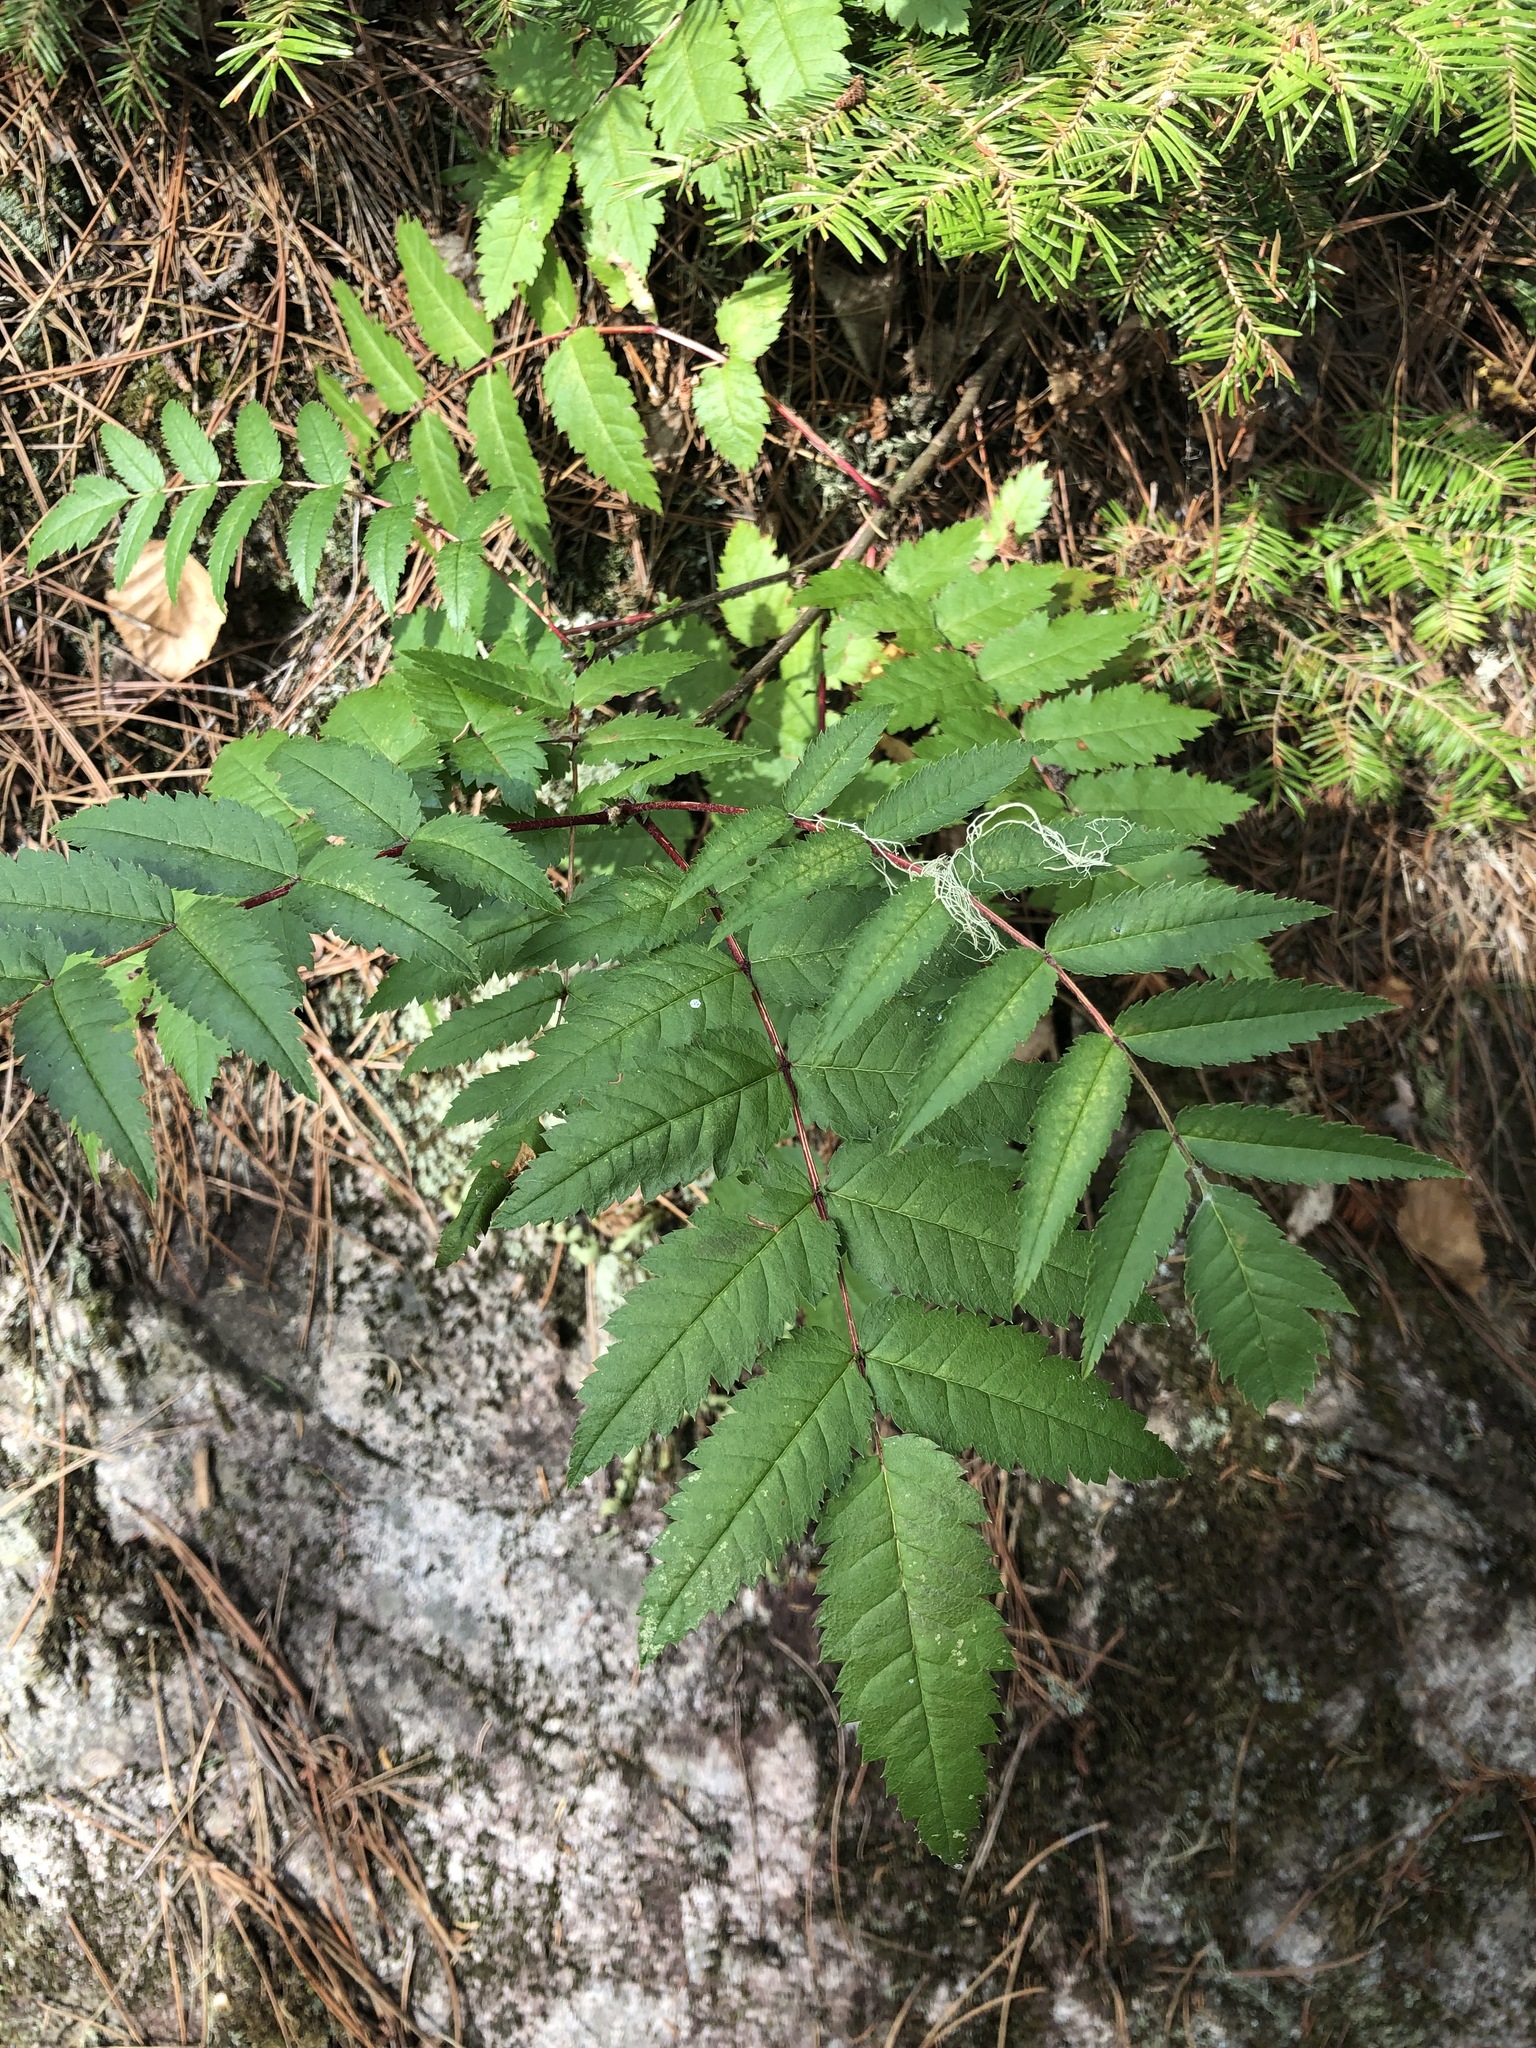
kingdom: Plantae
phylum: Tracheophyta
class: Magnoliopsida
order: Rosales
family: Rosaceae
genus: Sorbus
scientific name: Sorbus decora
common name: Northern mountain-ash
